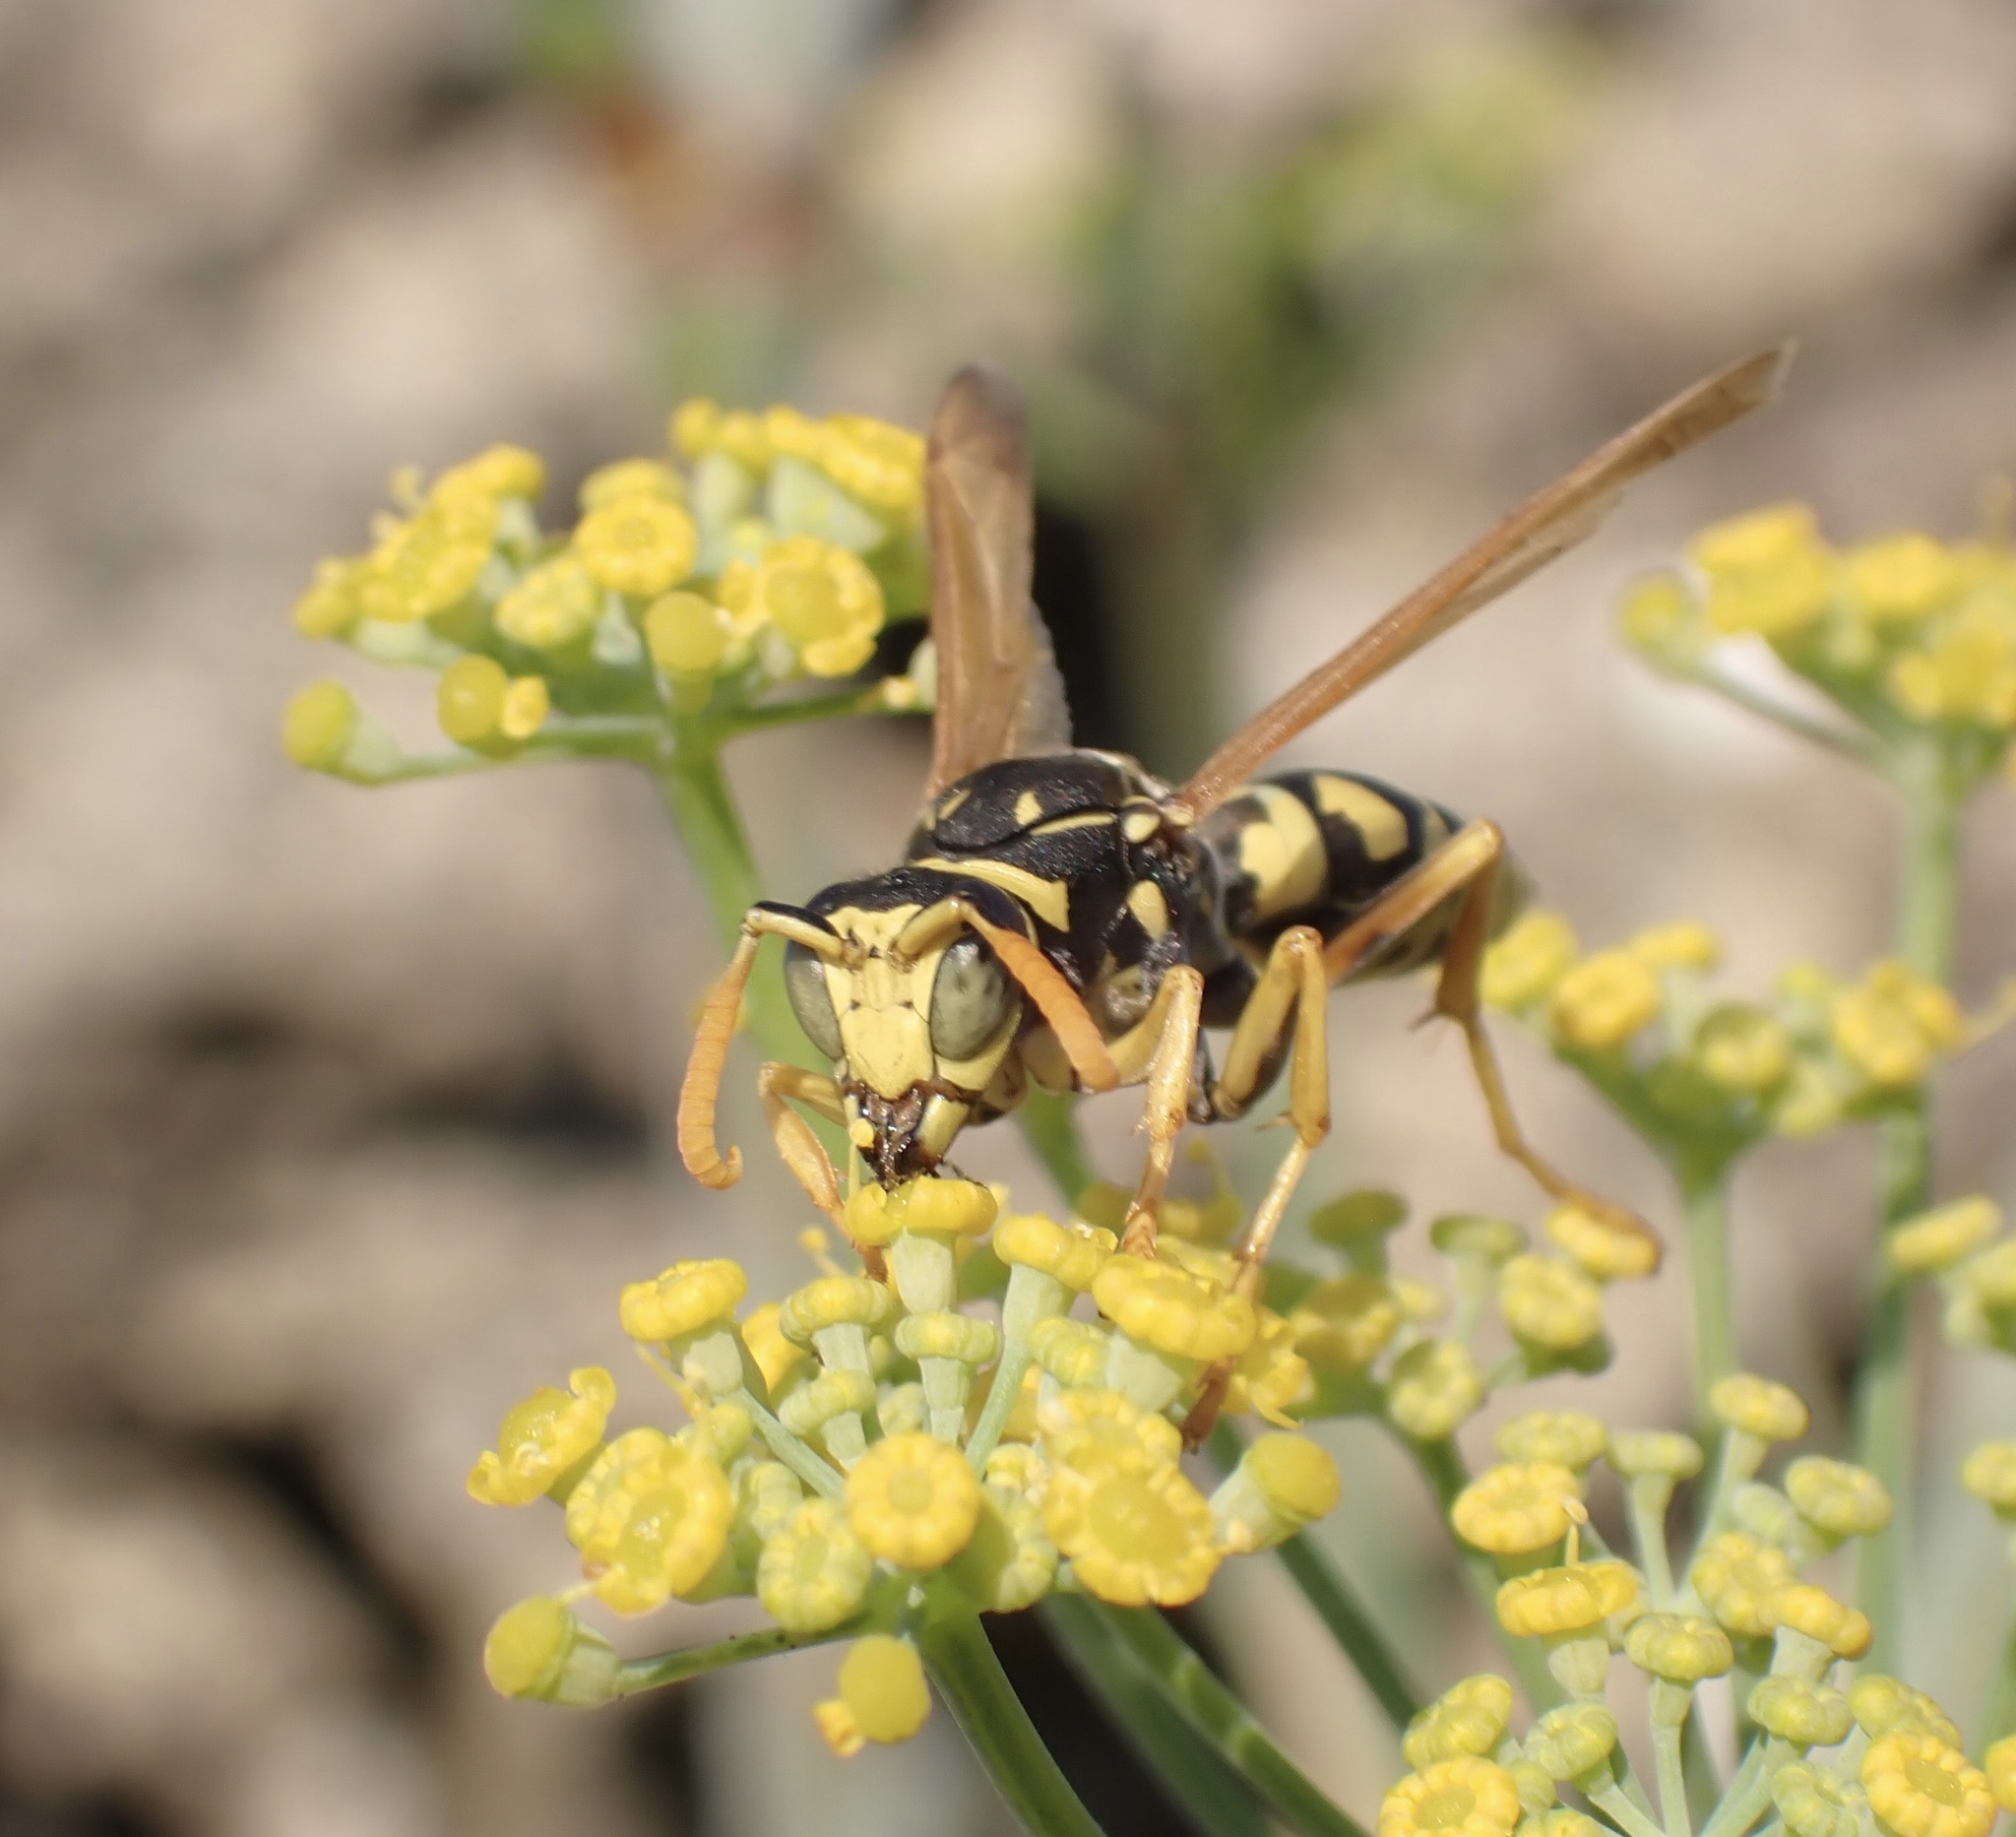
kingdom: Animalia
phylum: Arthropoda
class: Insecta
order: Hymenoptera
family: Eumenidae
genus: Polistes
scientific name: Polistes dominula
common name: Paper wasp
